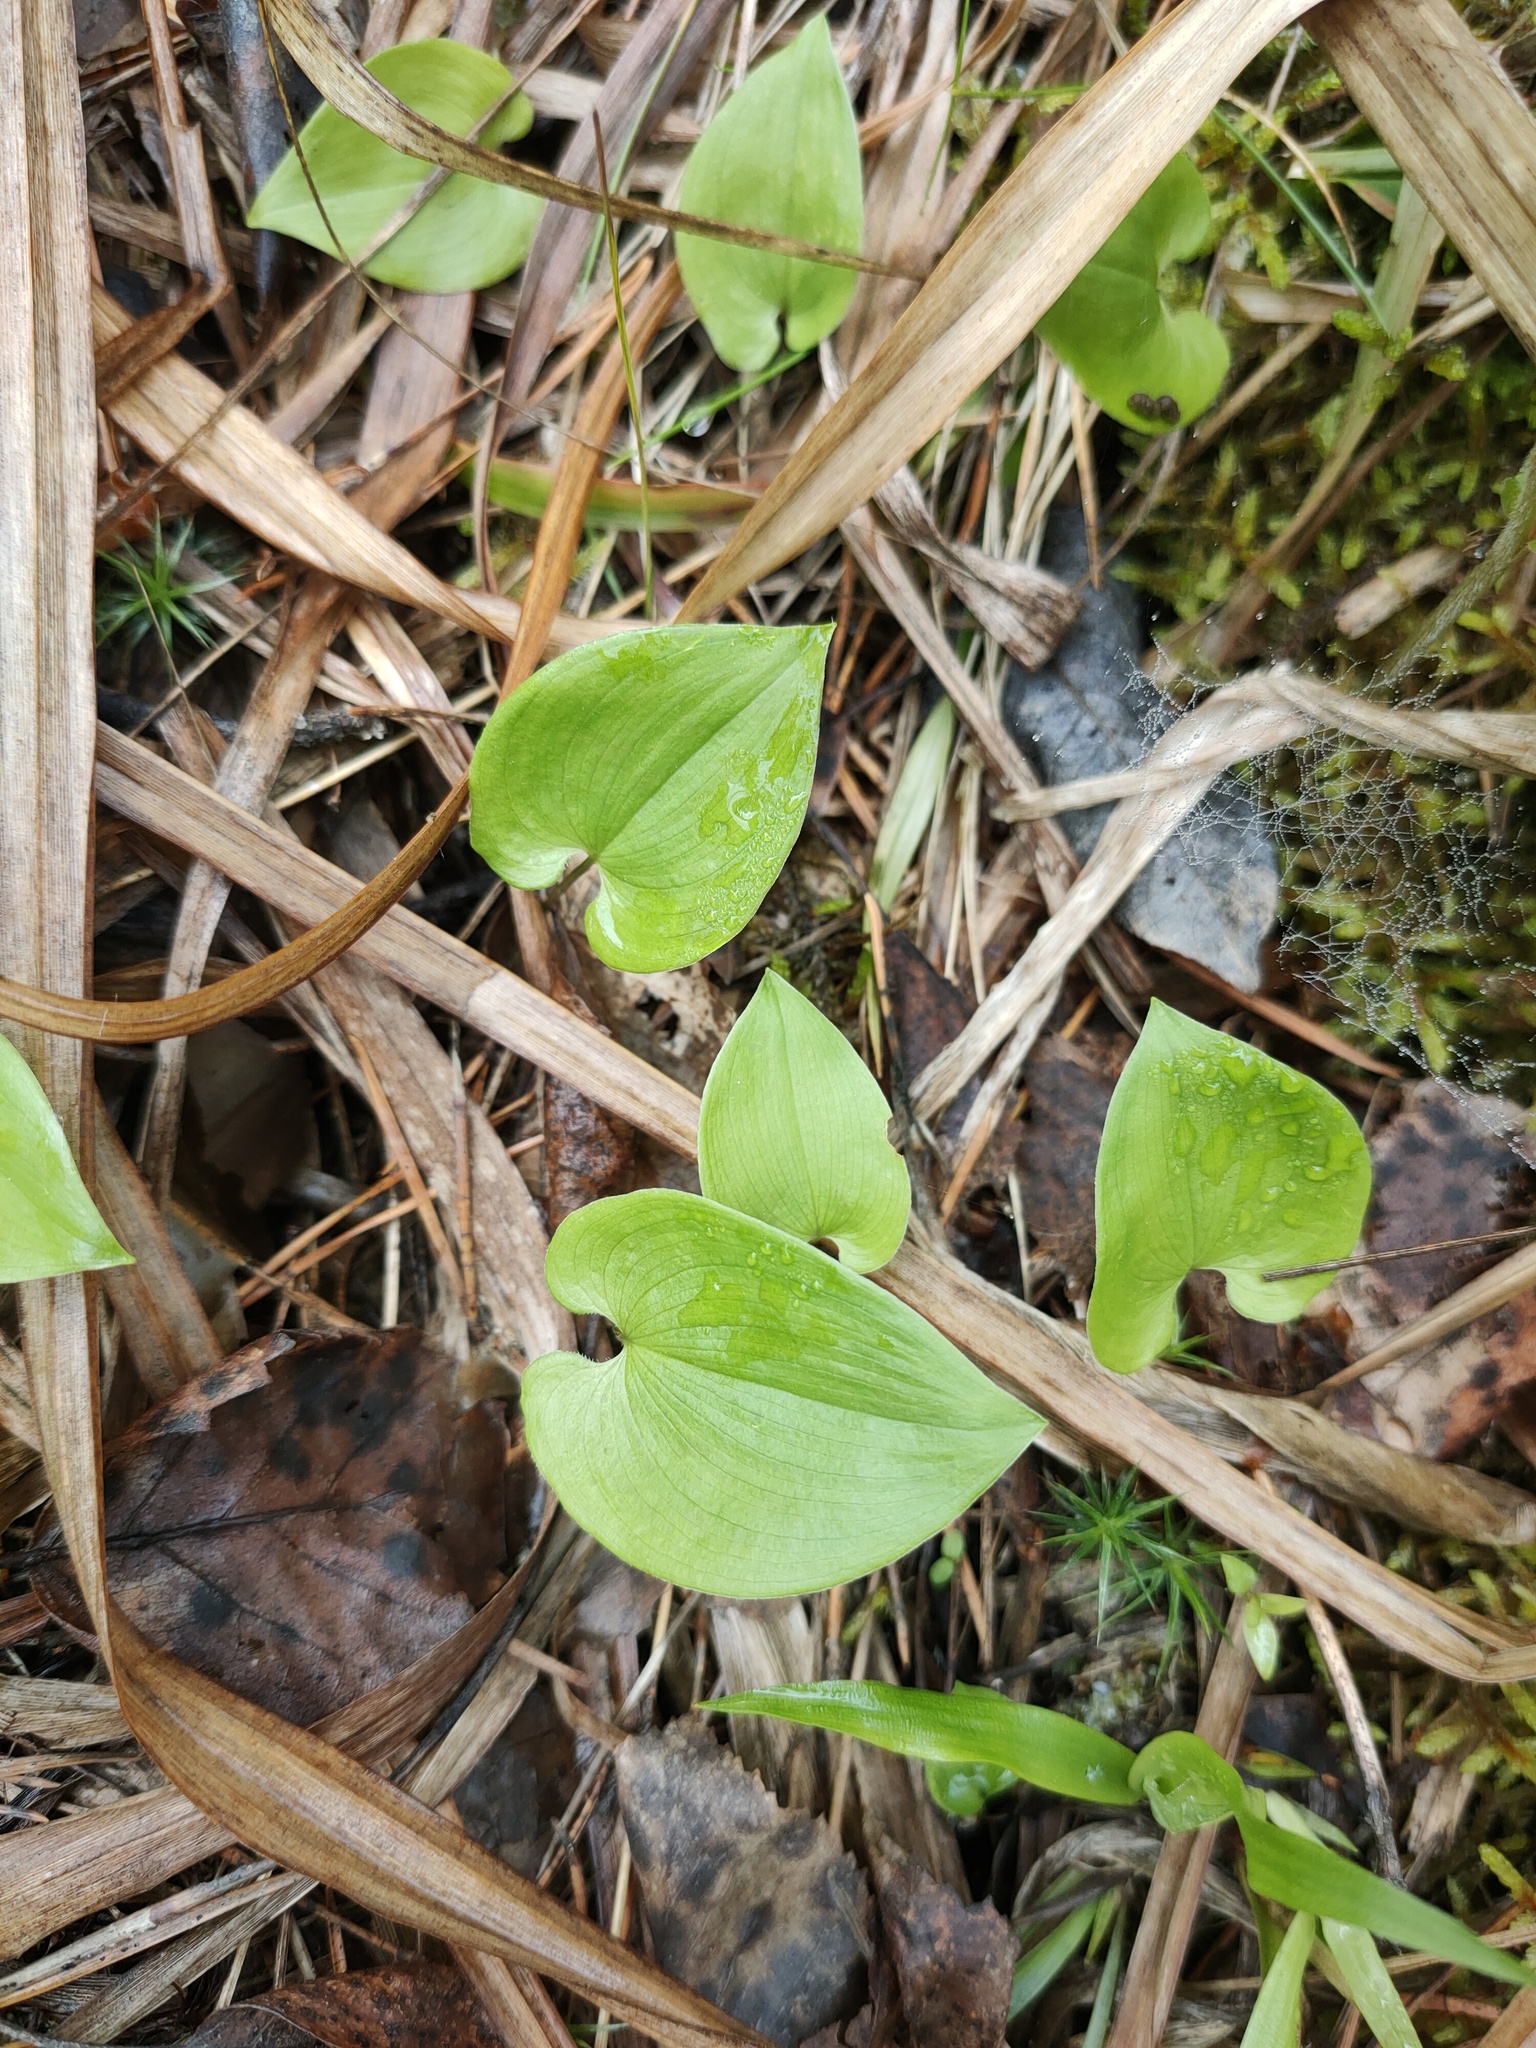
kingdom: Plantae
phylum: Tracheophyta
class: Liliopsida
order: Asparagales
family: Asparagaceae
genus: Maianthemum
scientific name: Maianthemum bifolium
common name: May lily
